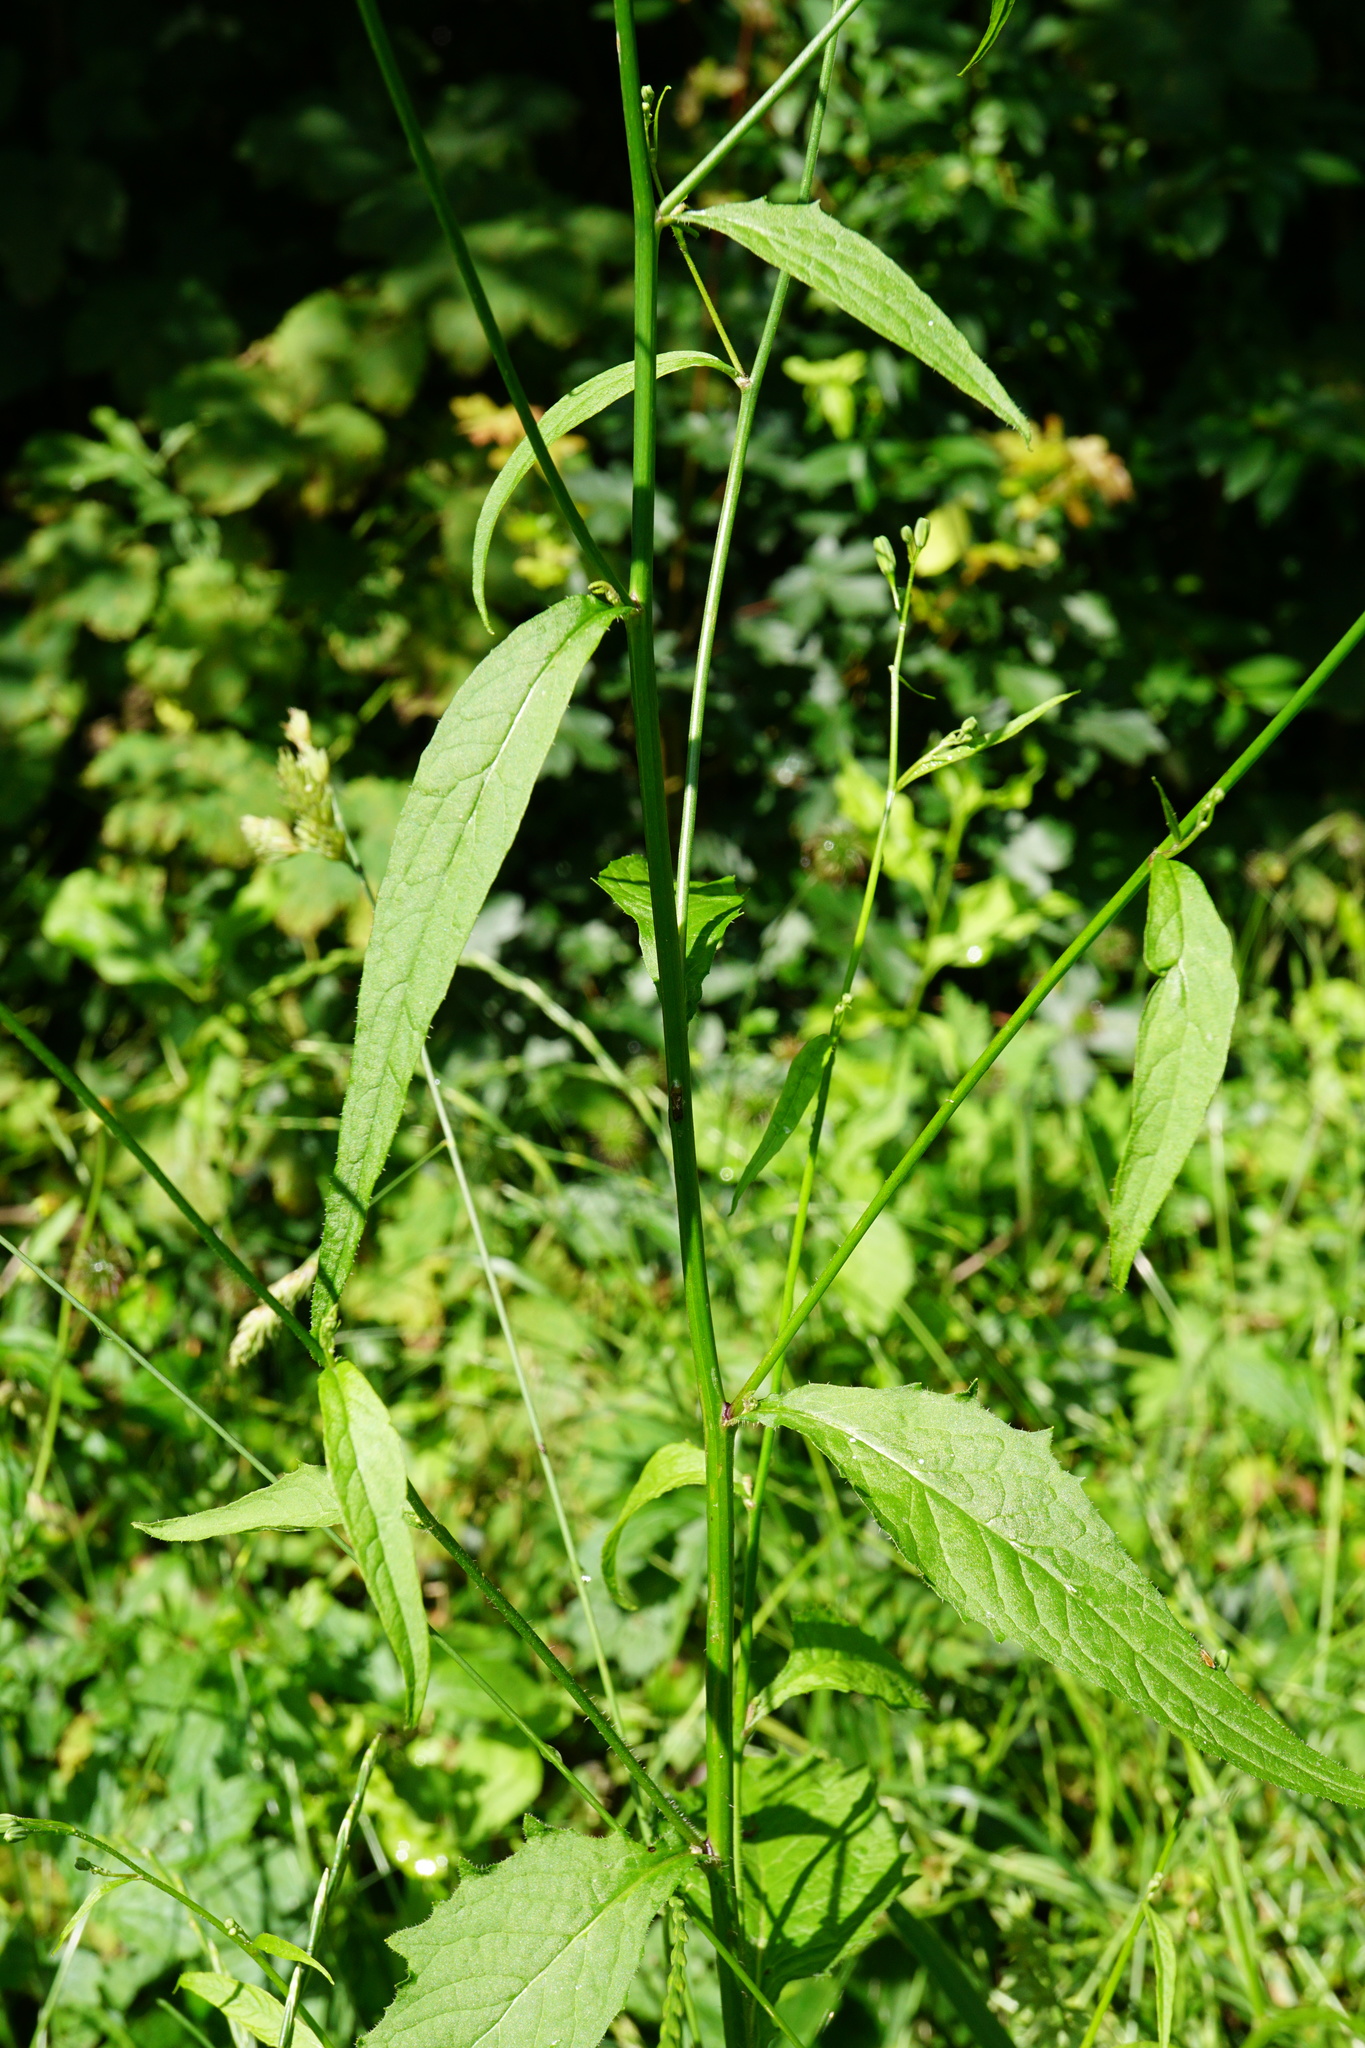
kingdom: Plantae
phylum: Tracheophyta
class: Magnoliopsida
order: Asterales
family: Asteraceae
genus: Lapsana
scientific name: Lapsana communis
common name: Nipplewort
